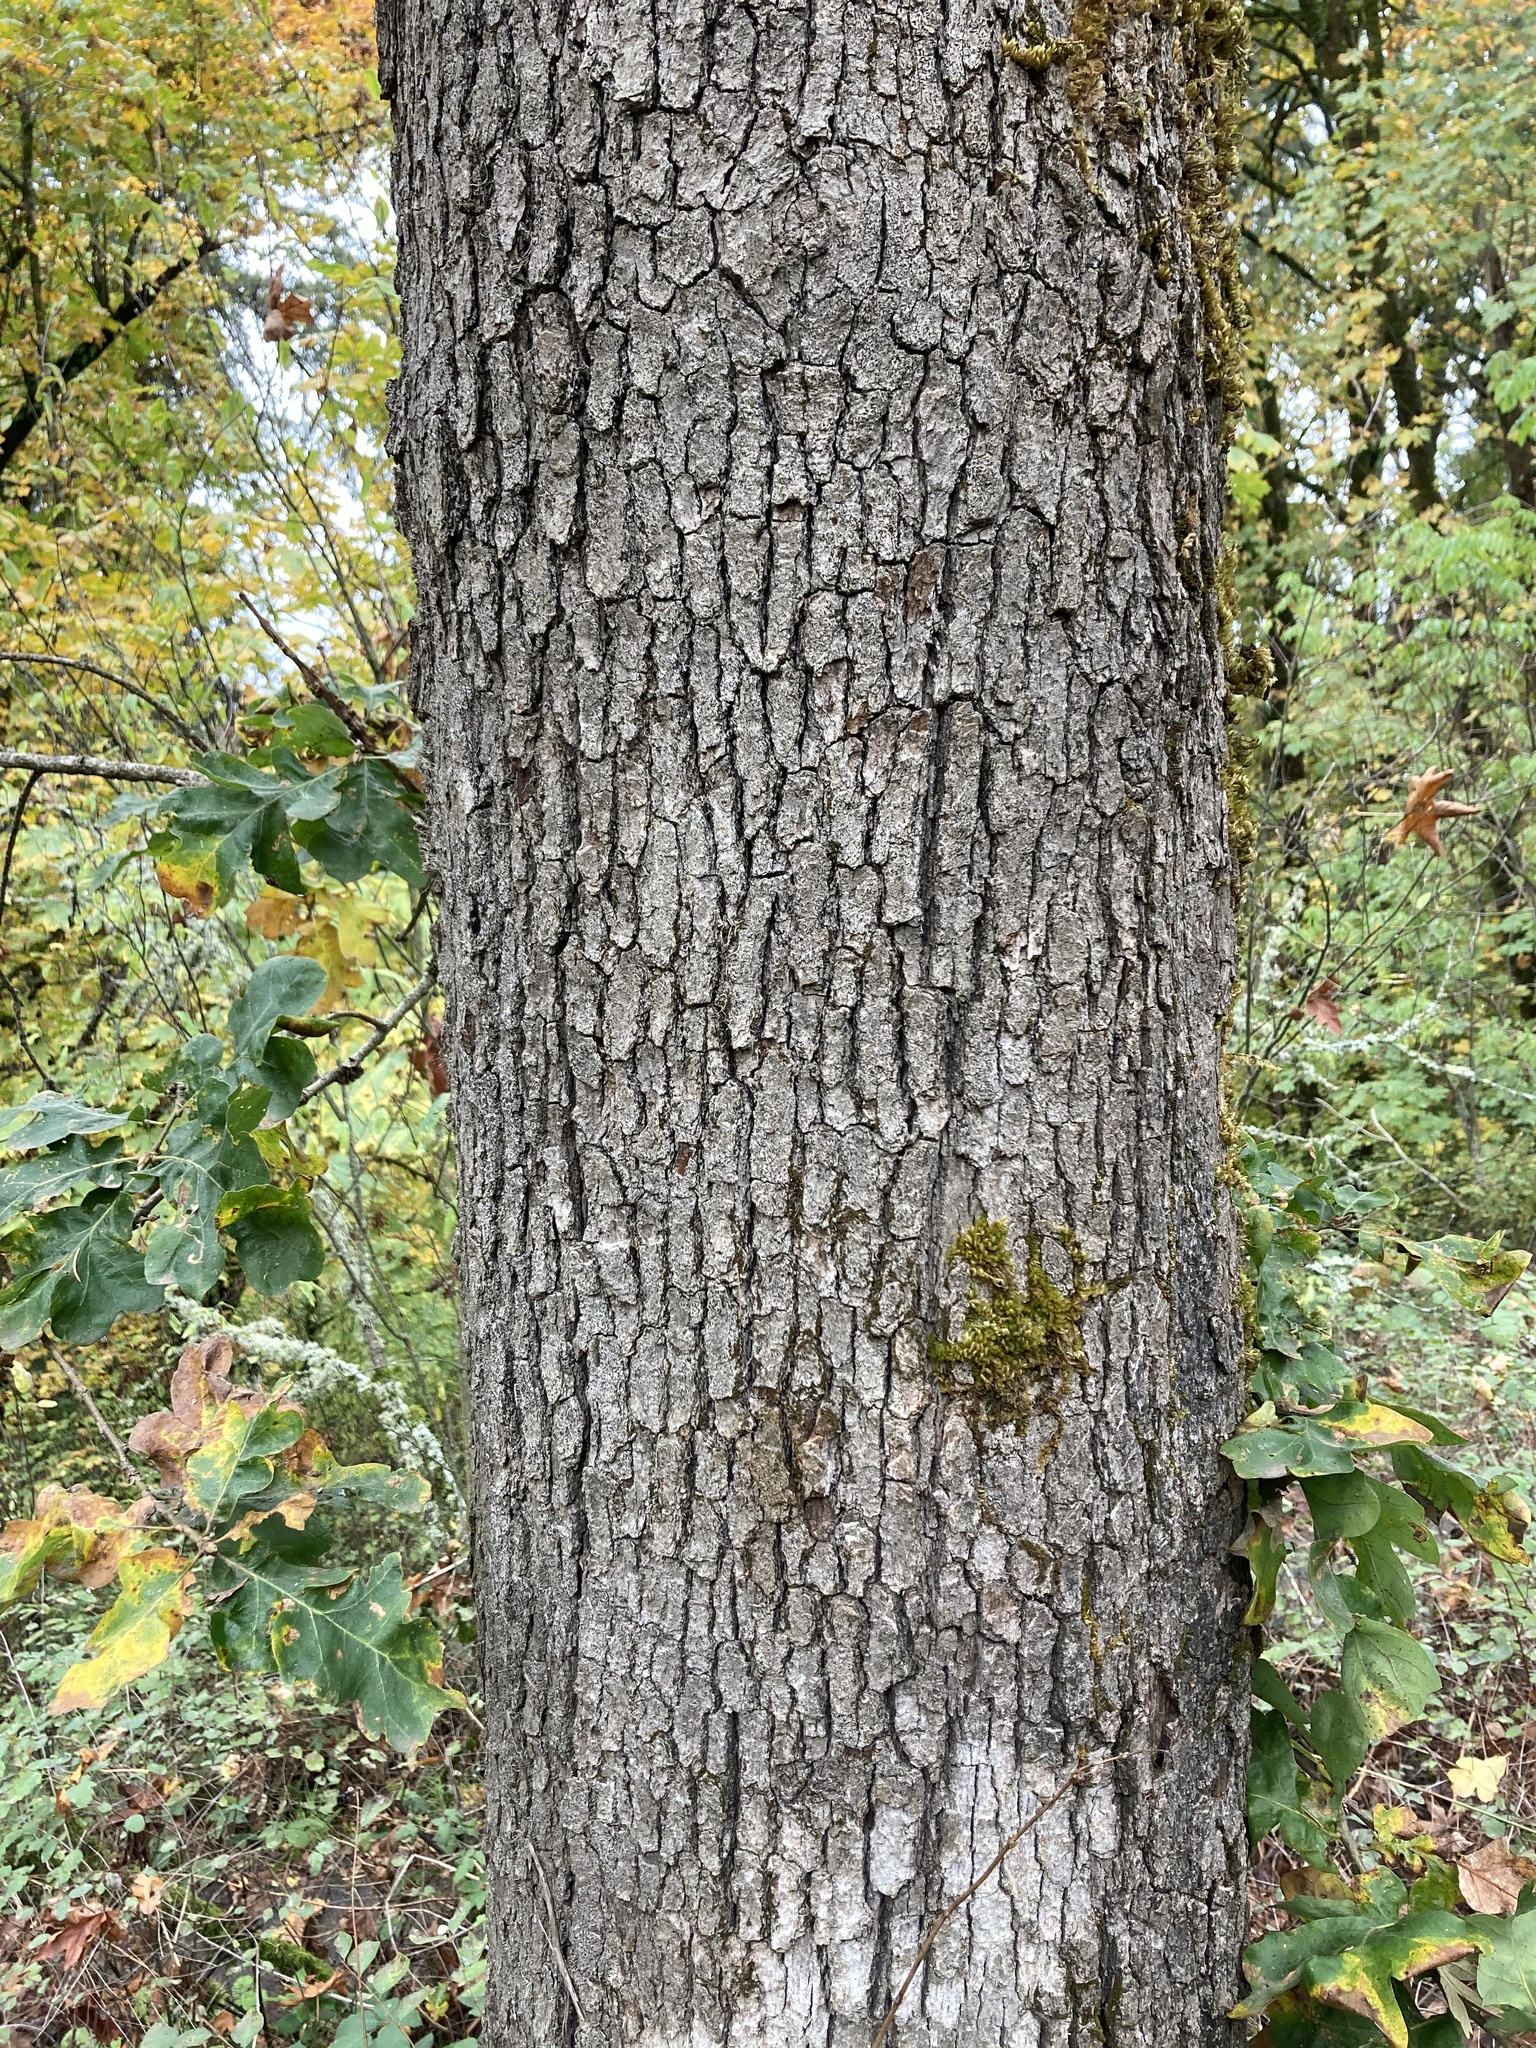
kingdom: Plantae
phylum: Tracheophyta
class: Magnoliopsida
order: Fagales
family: Fagaceae
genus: Quercus
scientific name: Quercus garryana
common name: Garry oak
